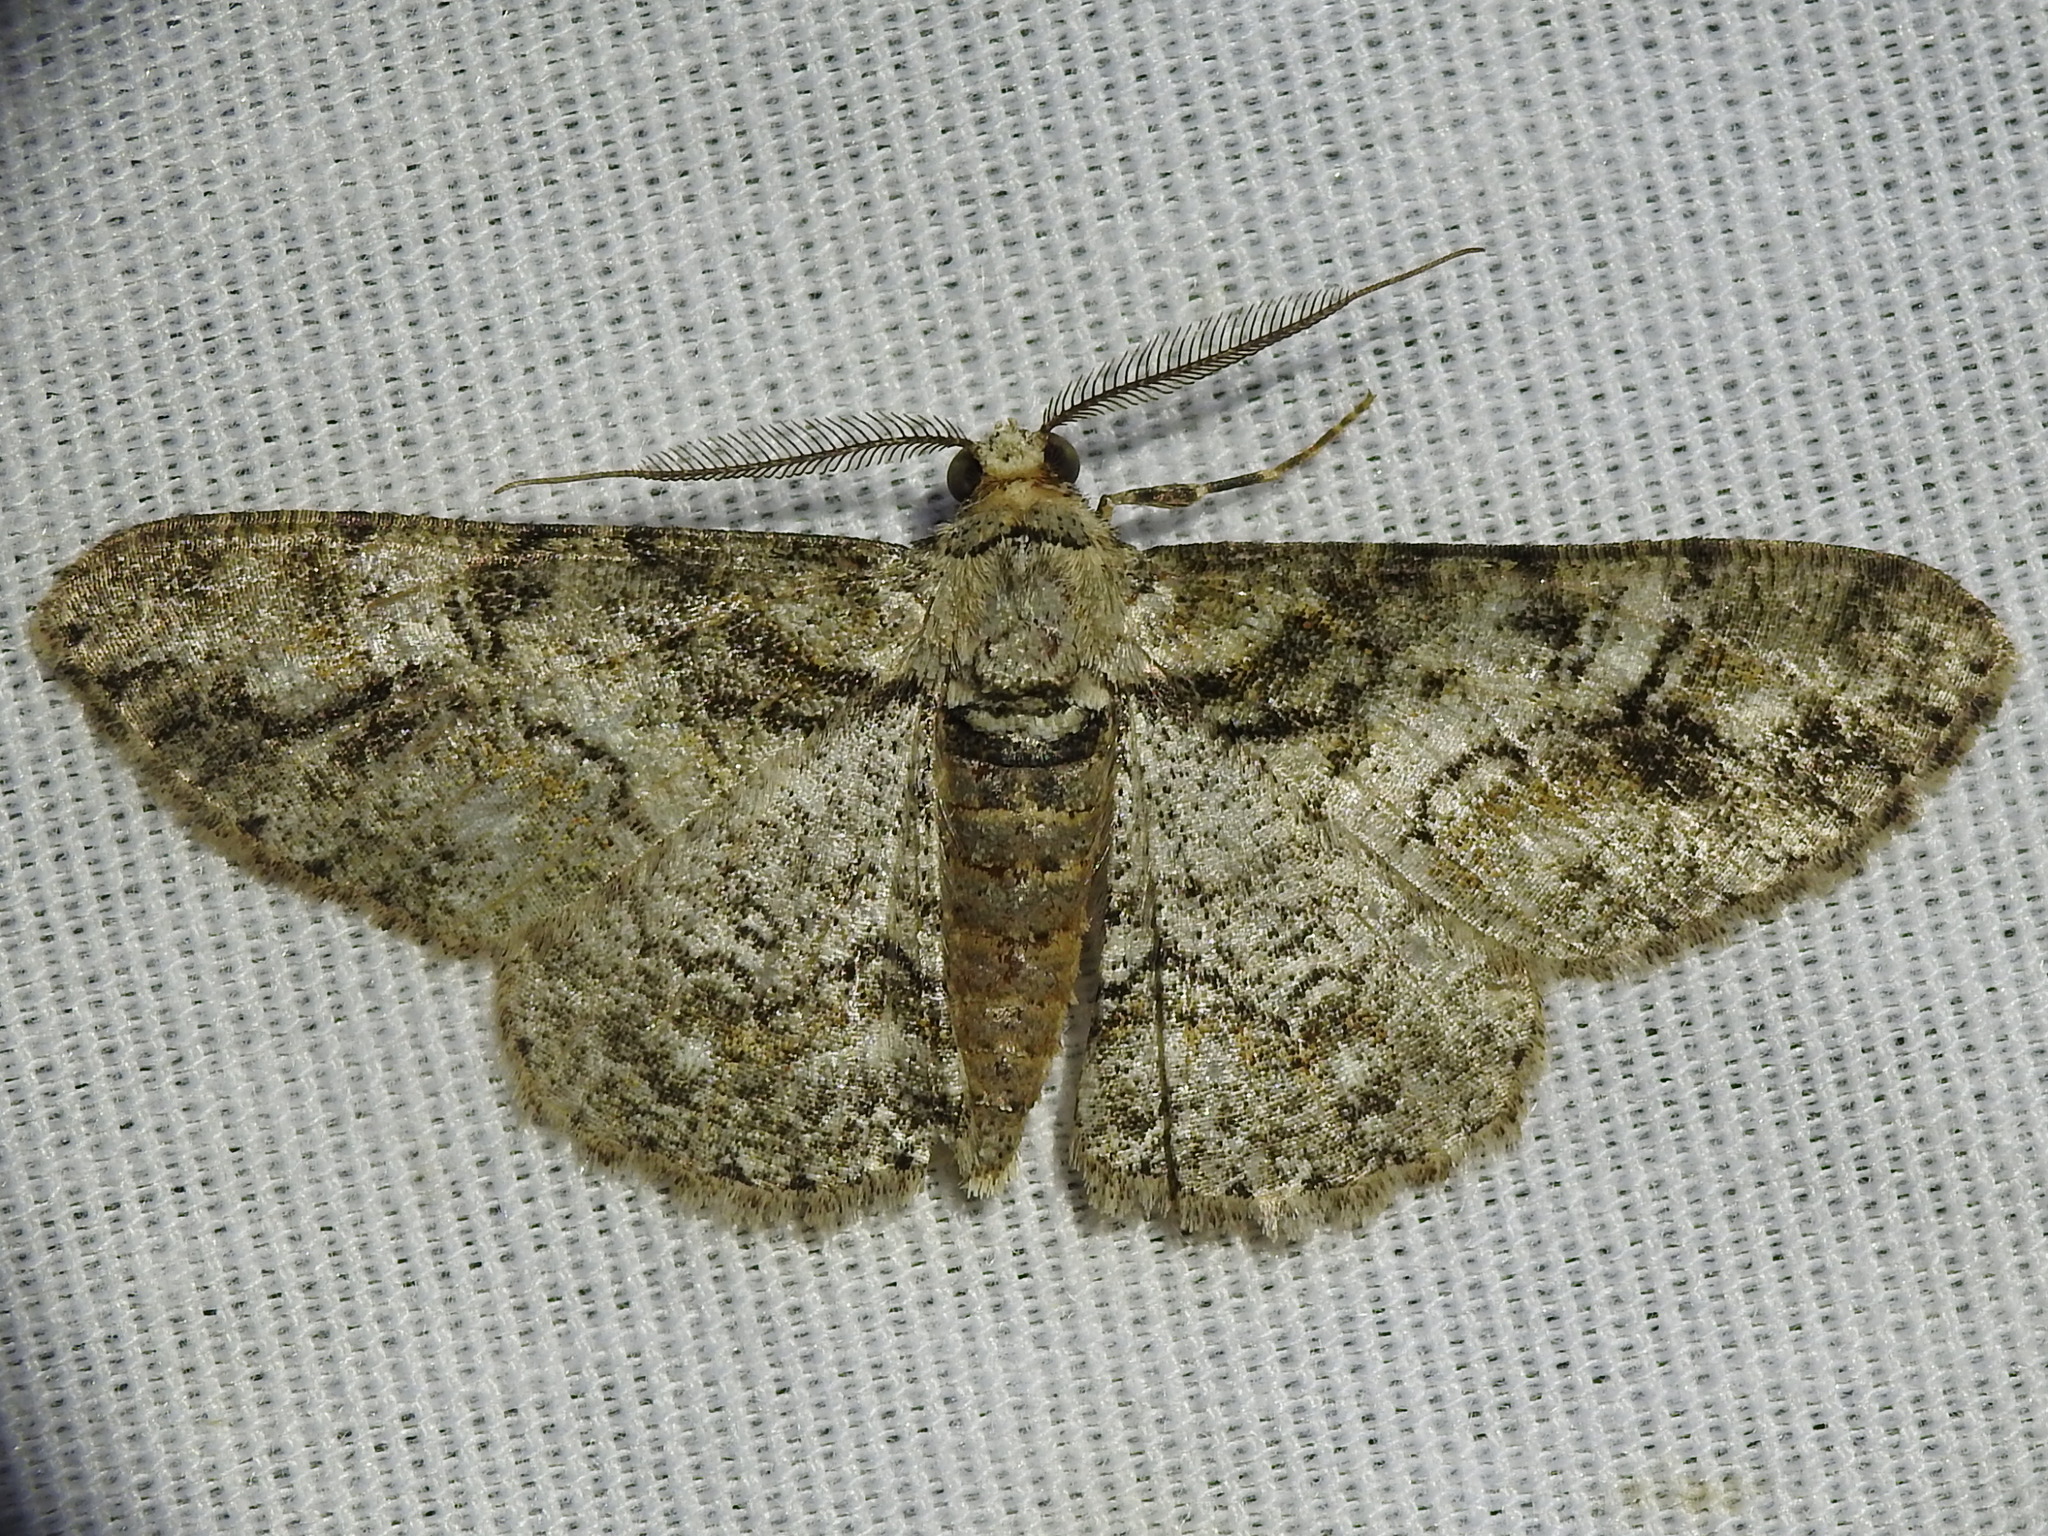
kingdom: Animalia
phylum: Arthropoda
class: Insecta
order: Lepidoptera
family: Geometridae
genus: Cleora
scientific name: Cleora sublunaria
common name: Double-lined gray
